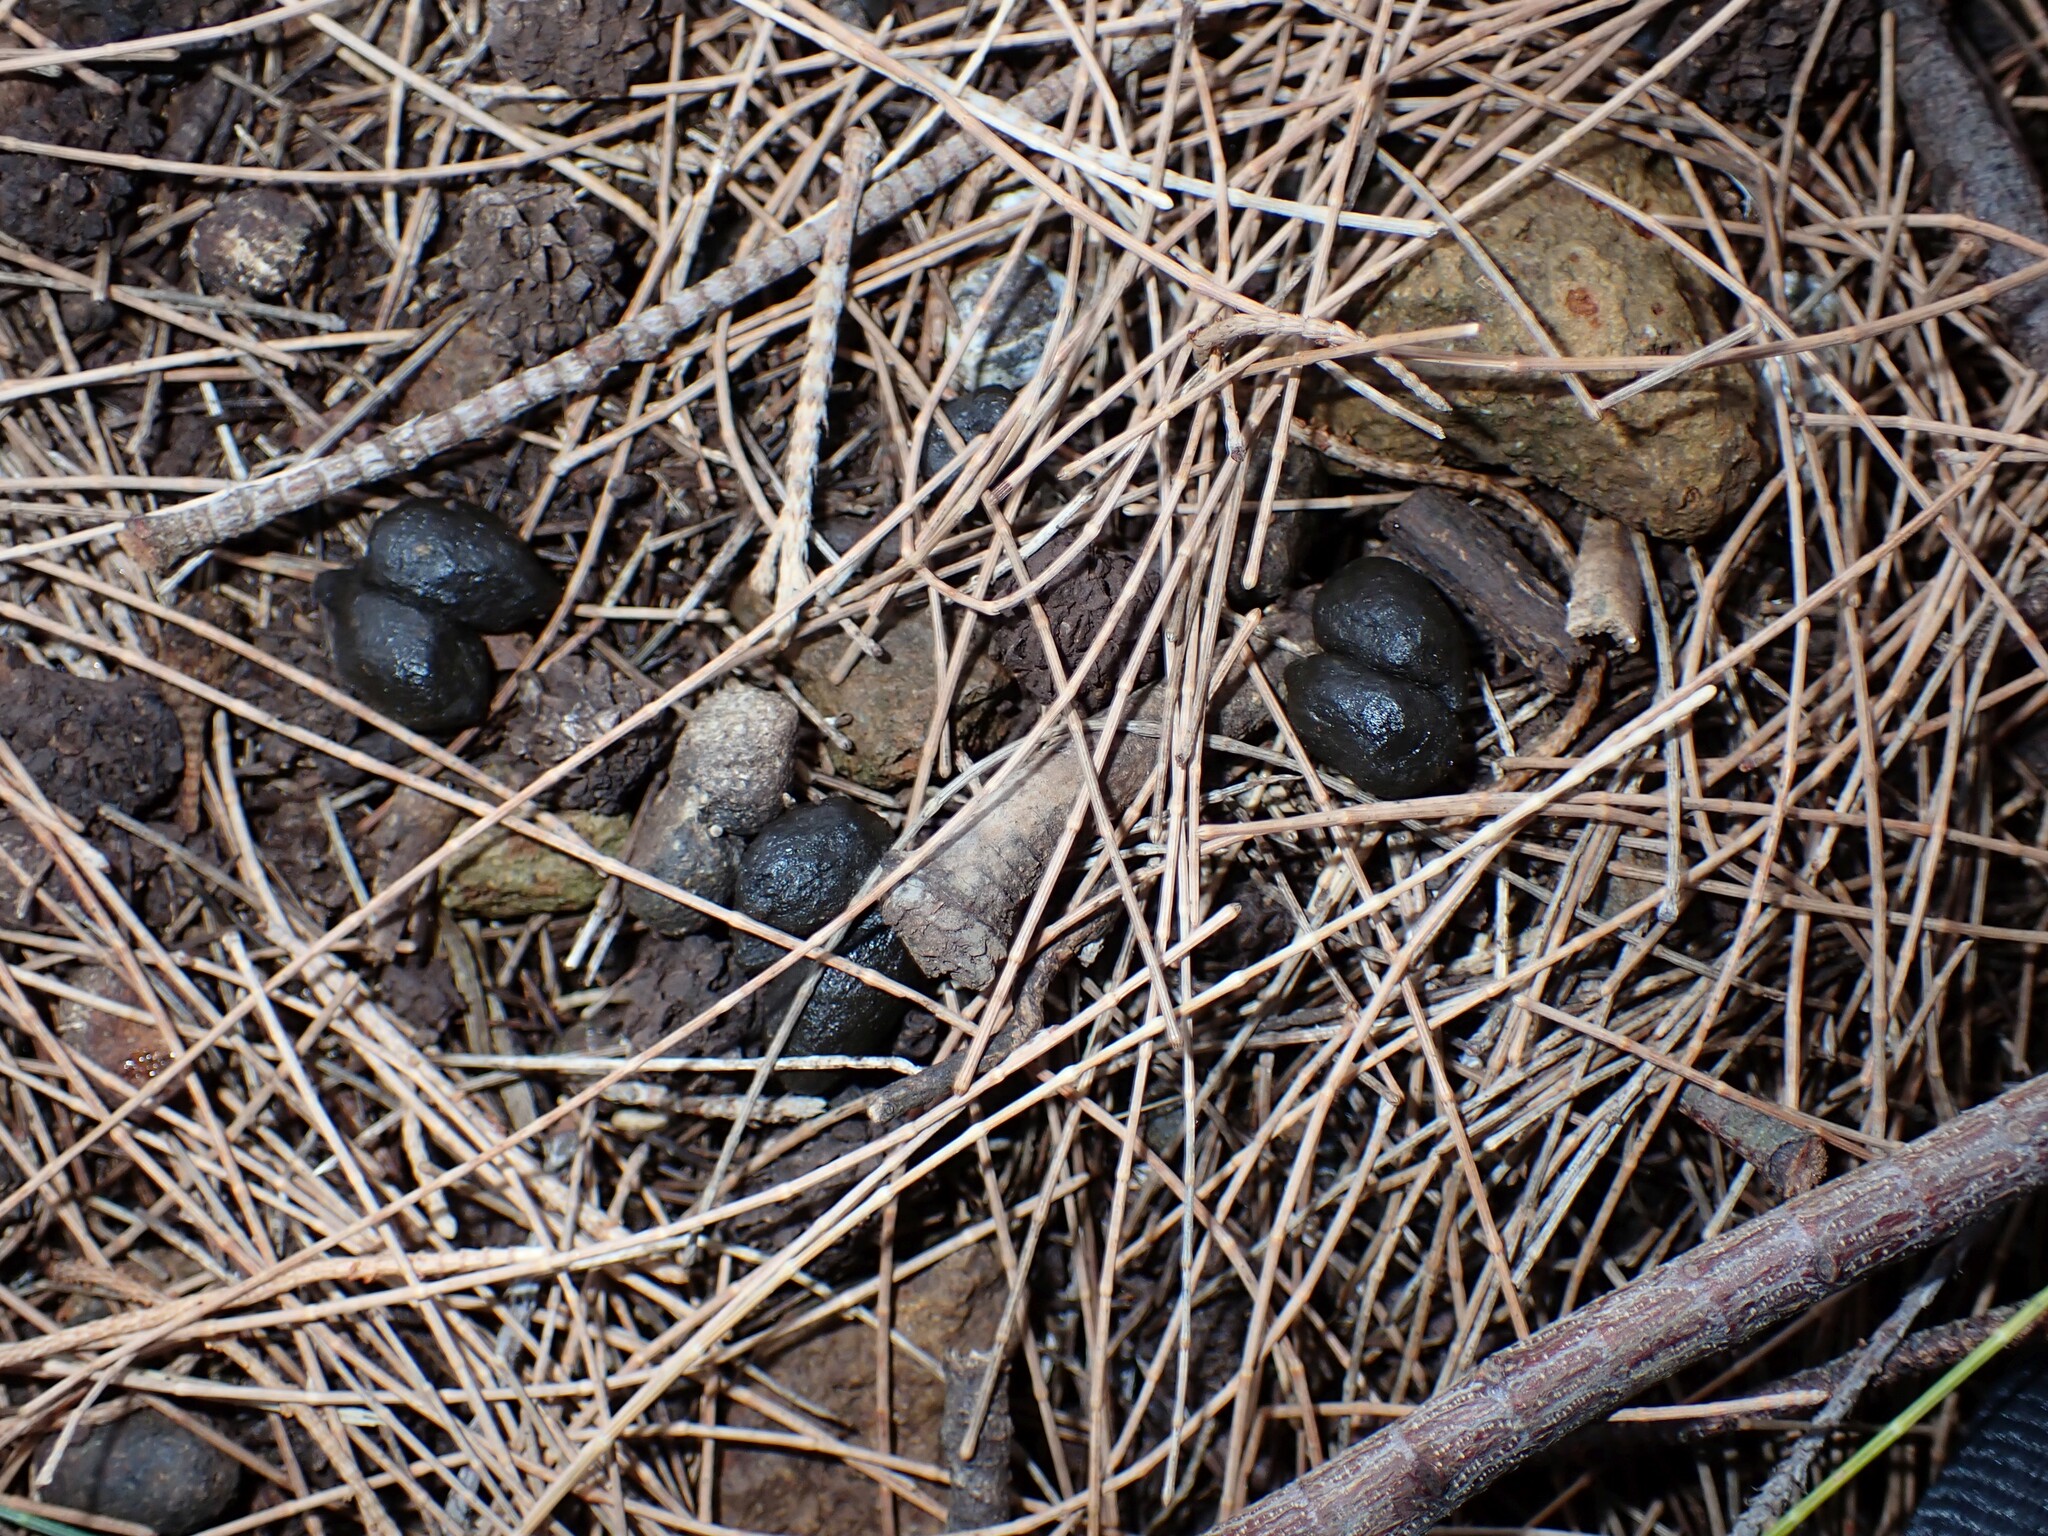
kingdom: Animalia
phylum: Chordata
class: Mammalia
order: Artiodactyla
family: Bovidae
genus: Capra
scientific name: Capra hircus
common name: Domestic goat
